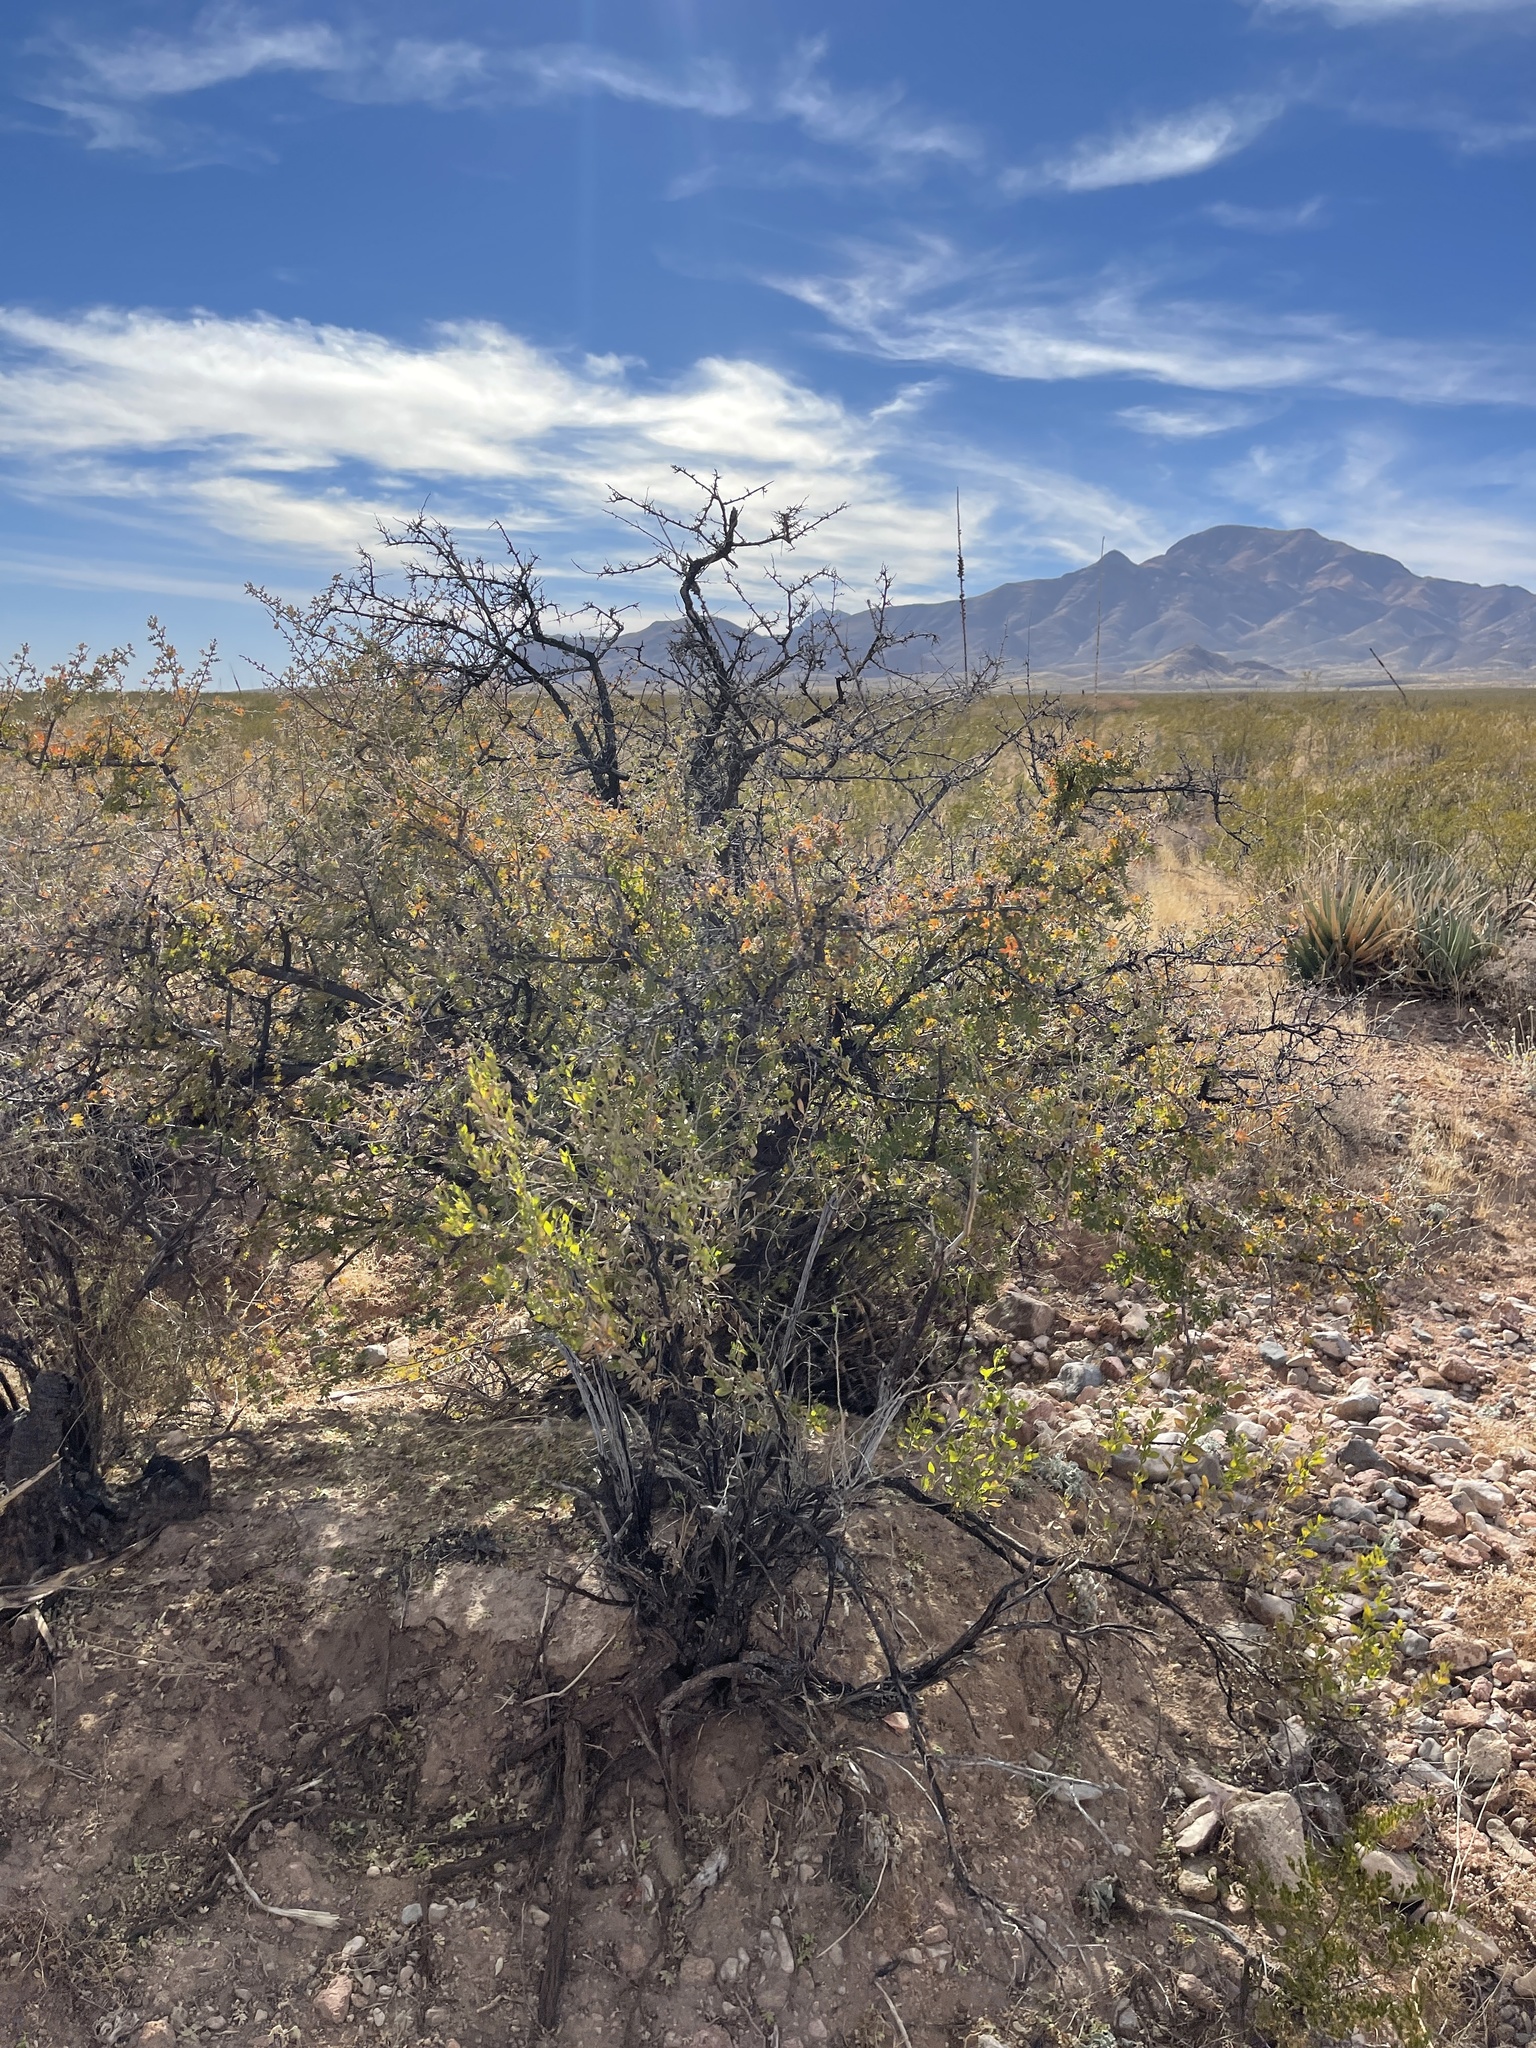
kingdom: Plantae
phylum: Tracheophyta
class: Magnoliopsida
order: Sapindales
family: Anacardiaceae
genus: Rhus
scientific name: Rhus microphylla
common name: Desert sumac
